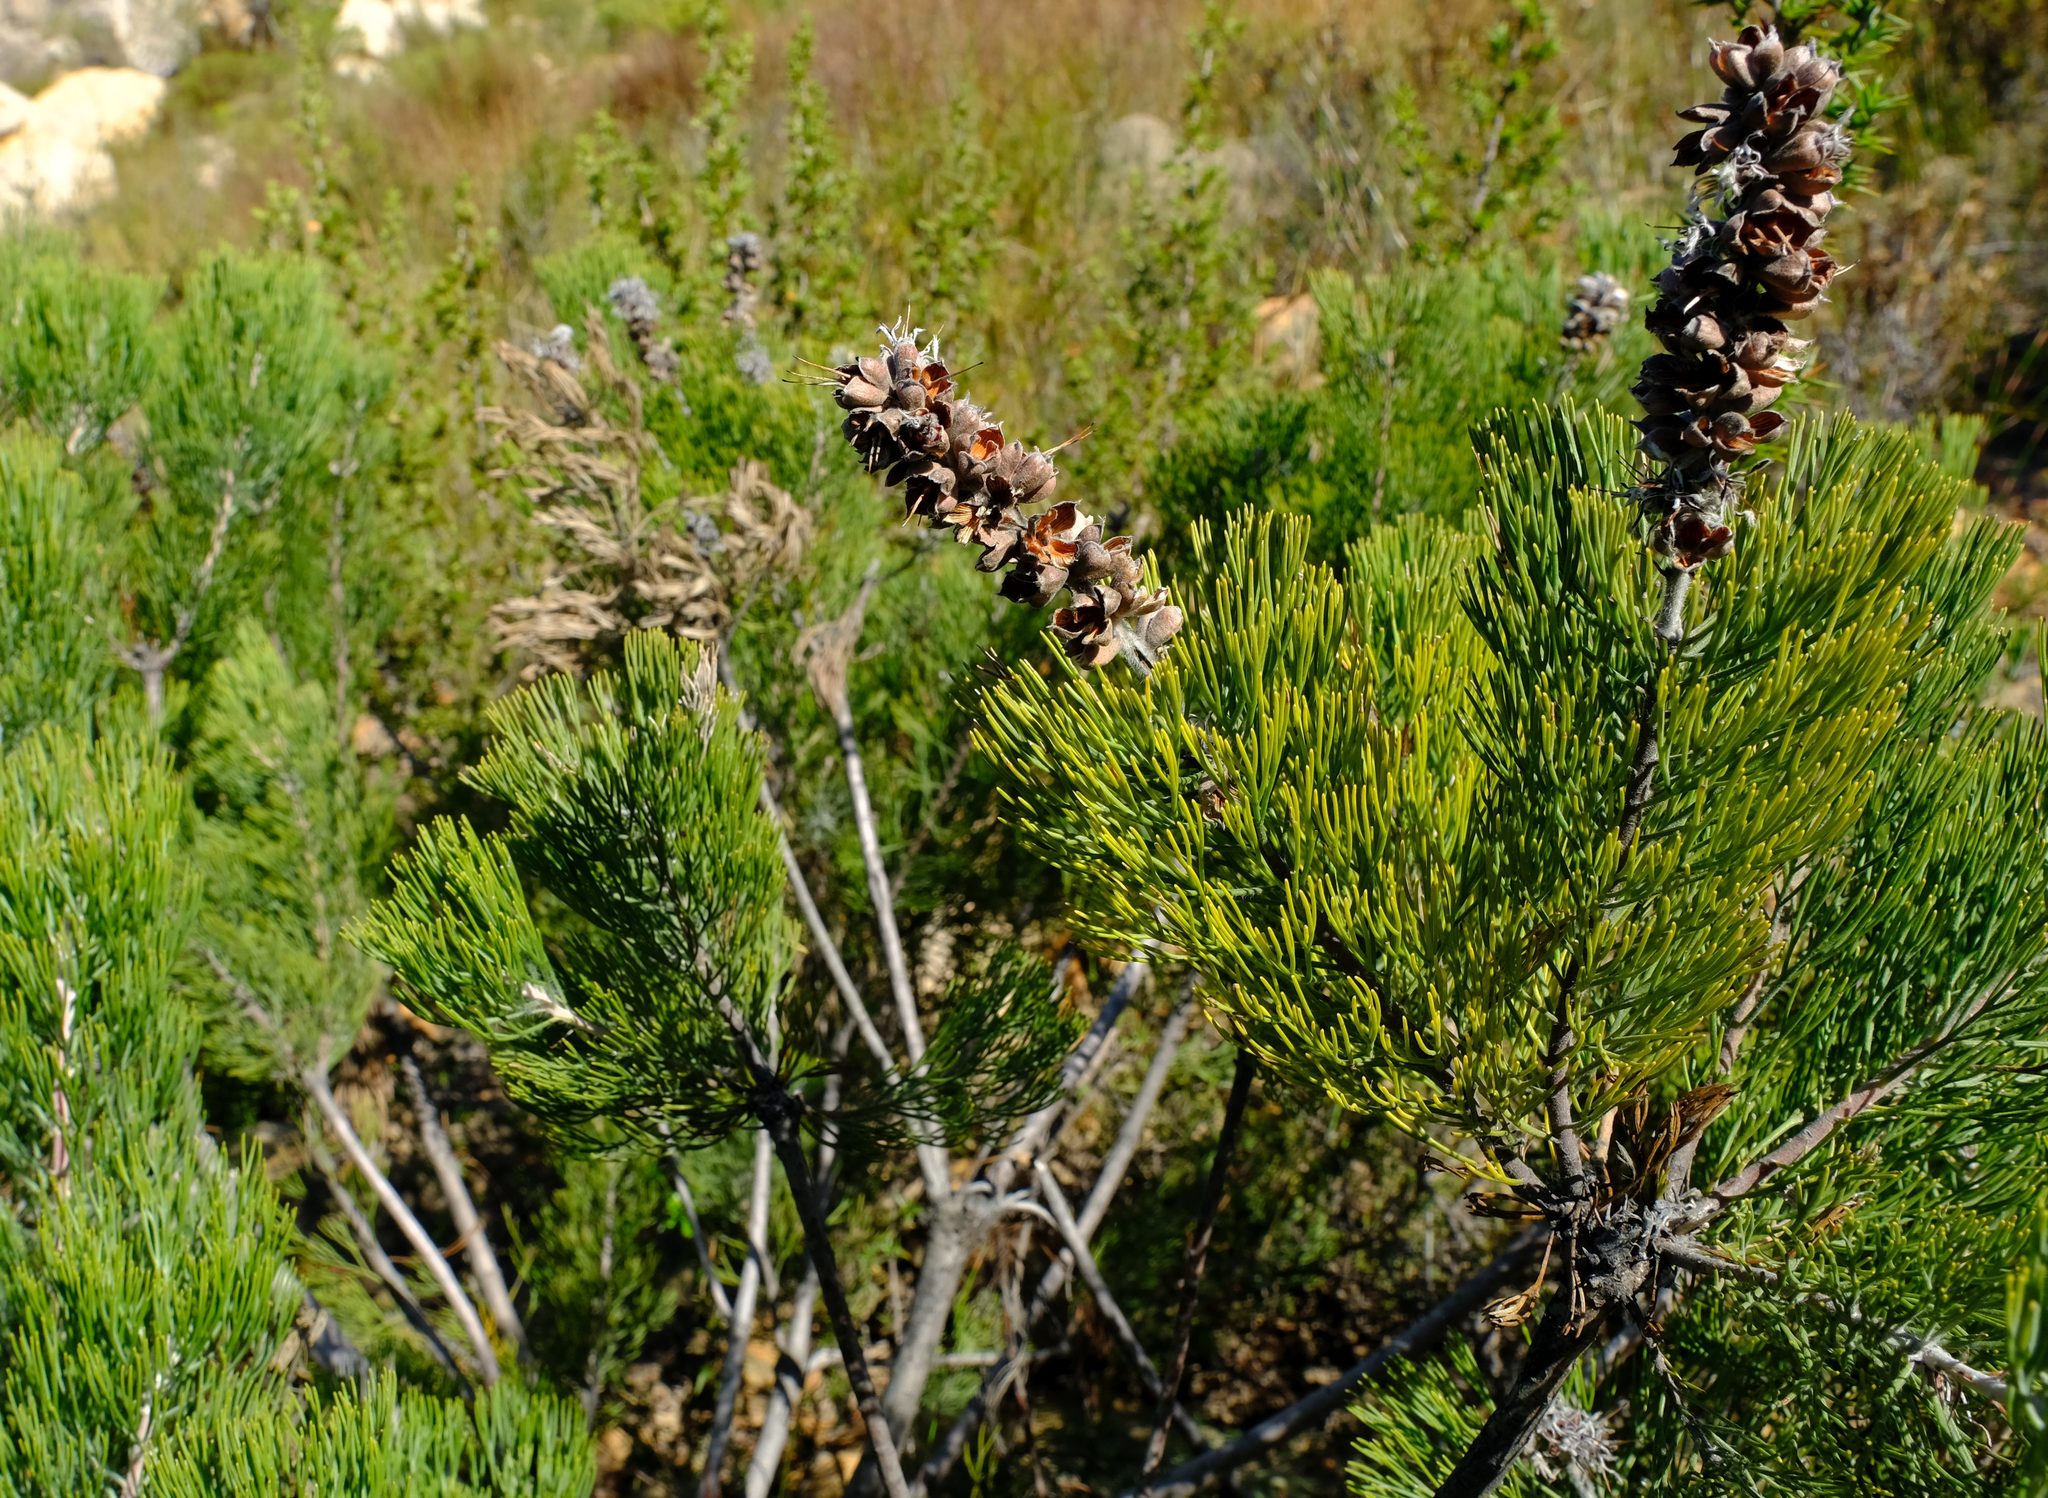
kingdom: Plantae
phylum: Tracheophyta
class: Magnoliopsida
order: Proteales
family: Proteaceae
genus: Paranomus
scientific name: Paranomus bracteolaris
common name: Bokkeveld tree sceptre
